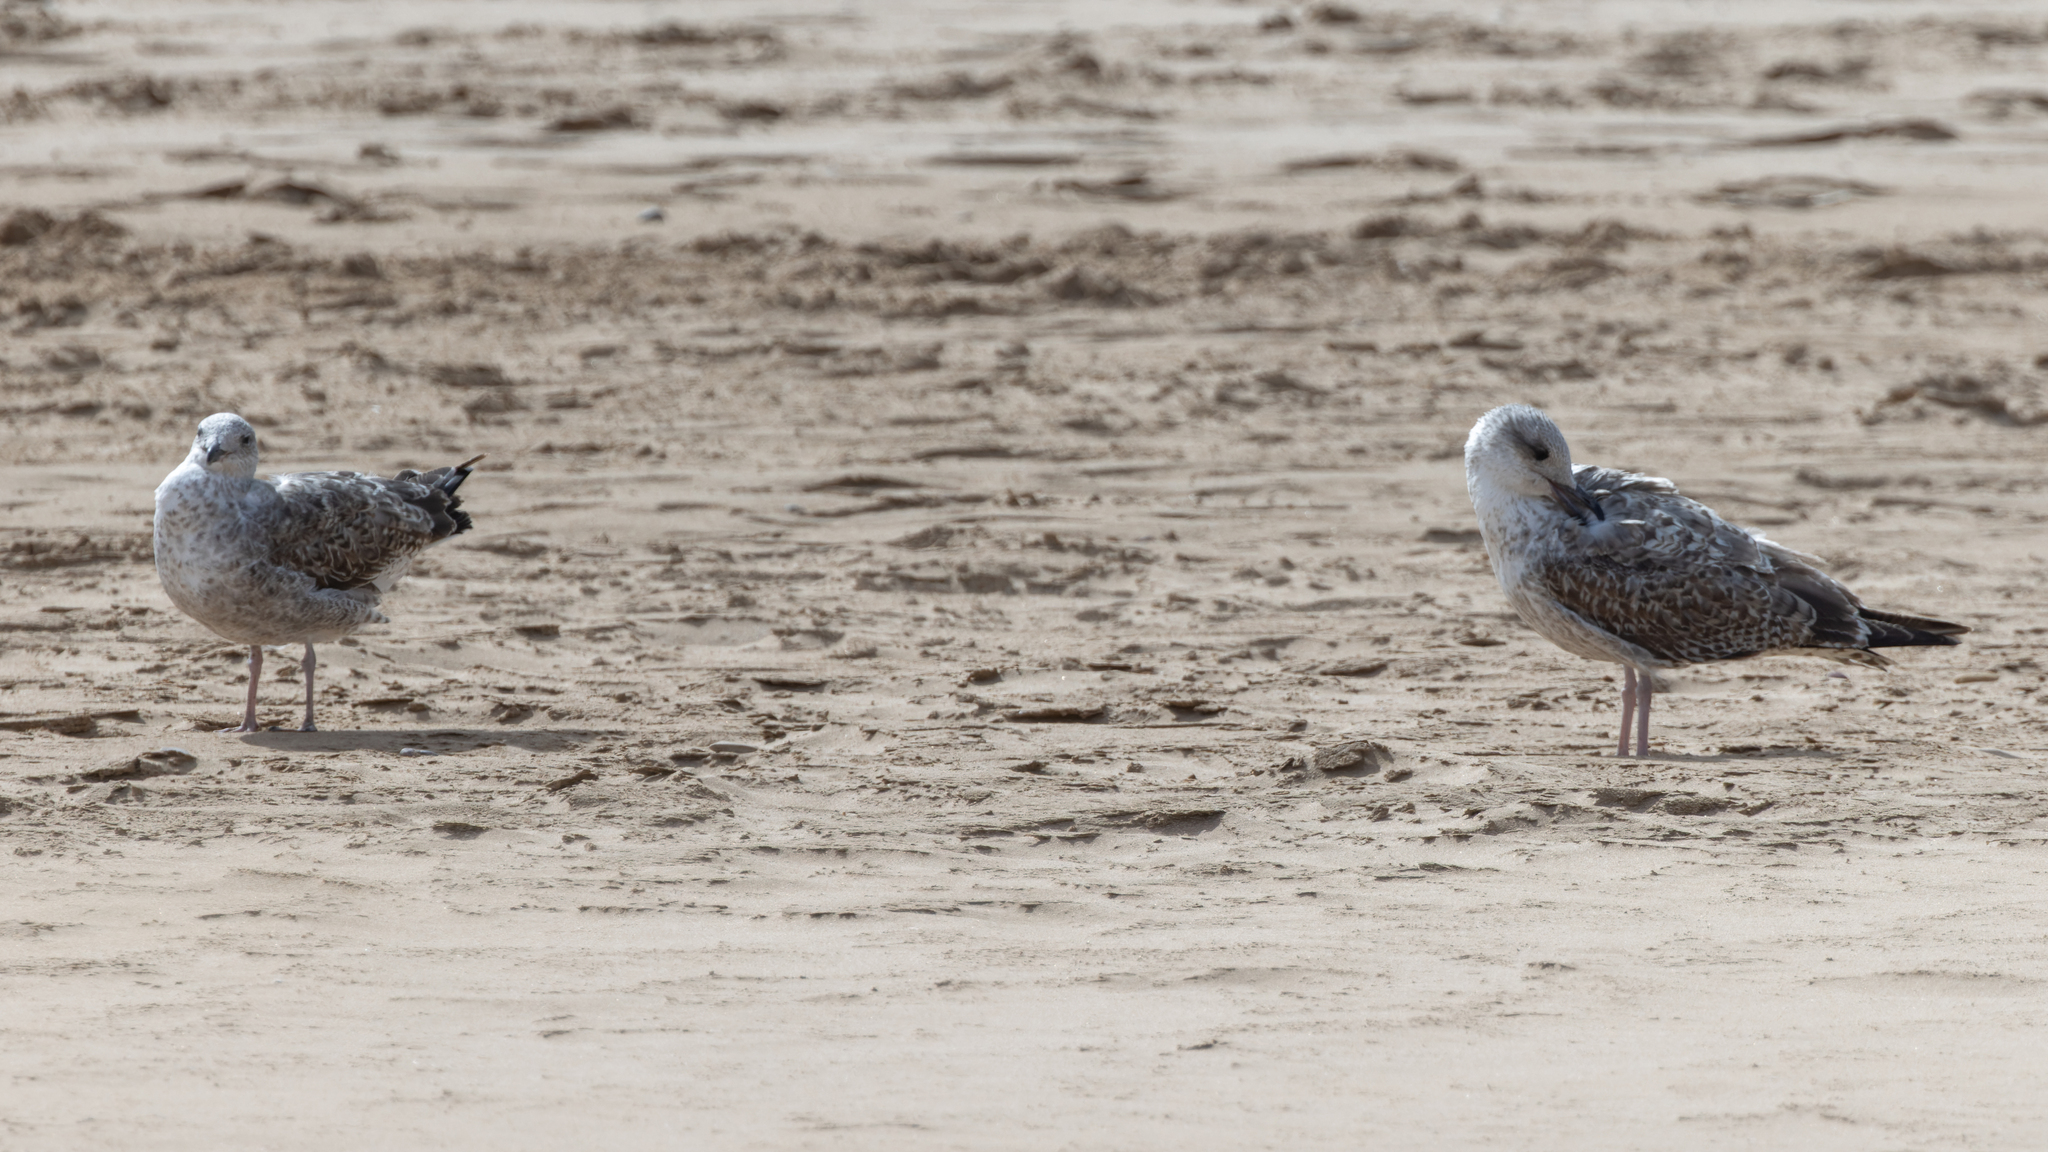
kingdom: Animalia
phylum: Chordata
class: Aves
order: Charadriiformes
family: Laridae
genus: Larus
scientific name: Larus fuscus
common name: Lesser black-backed gull
